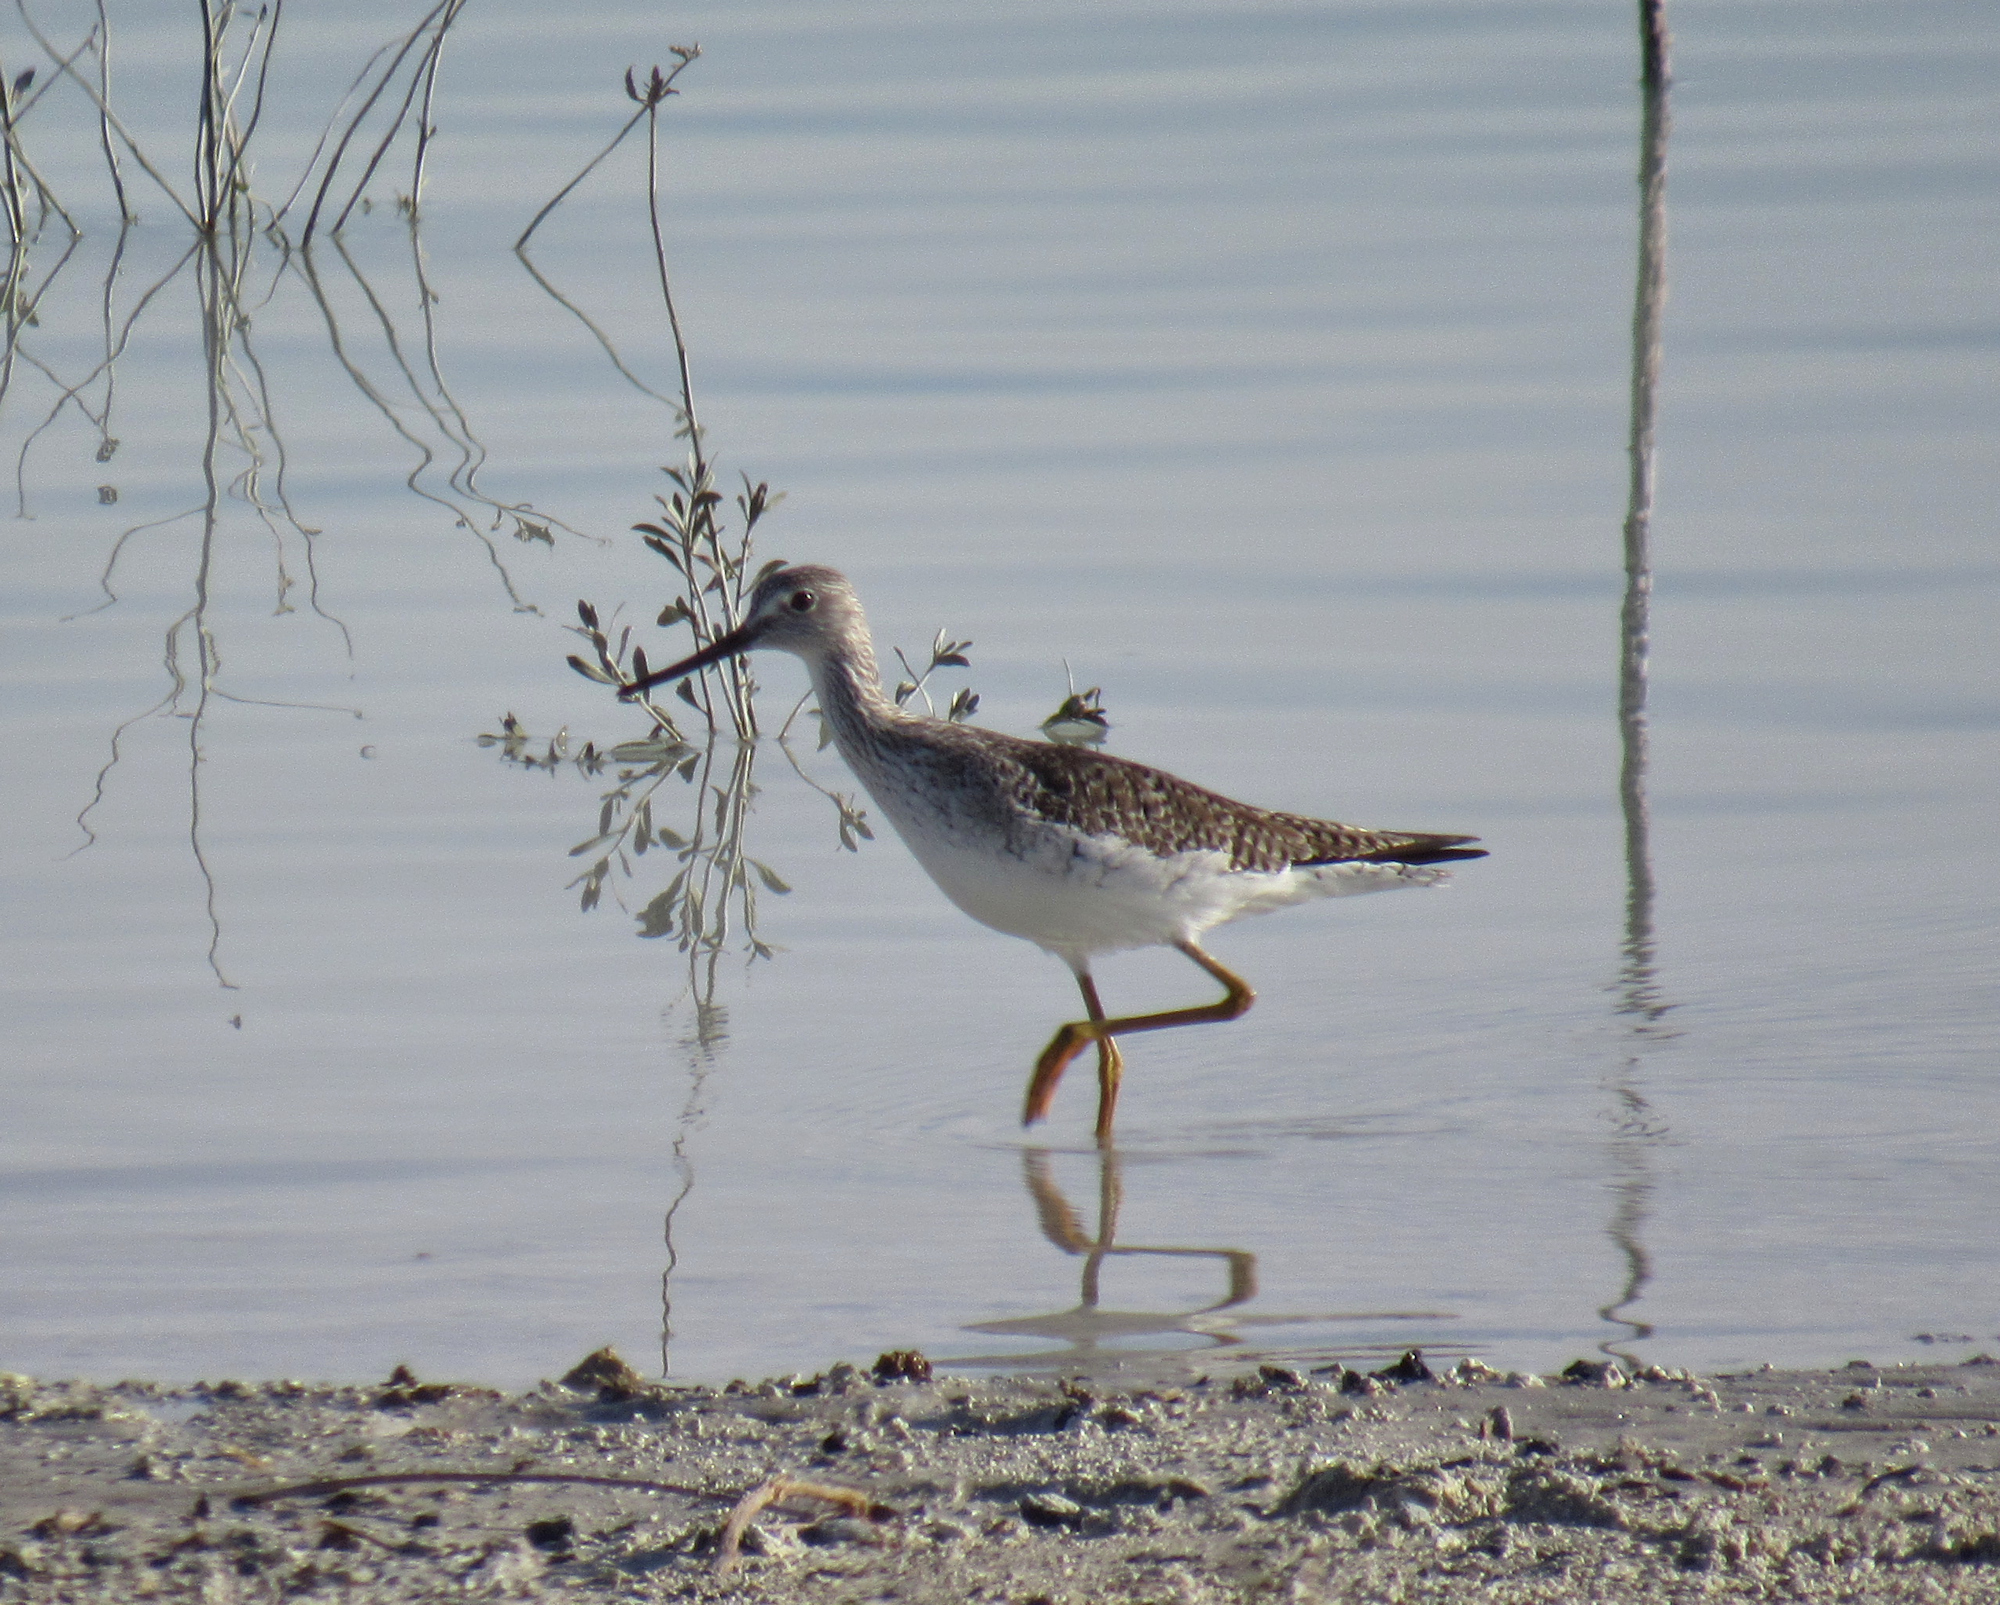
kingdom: Animalia
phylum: Chordata
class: Aves
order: Charadriiformes
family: Scolopacidae
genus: Tringa
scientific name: Tringa melanoleuca
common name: Greater yellowlegs
